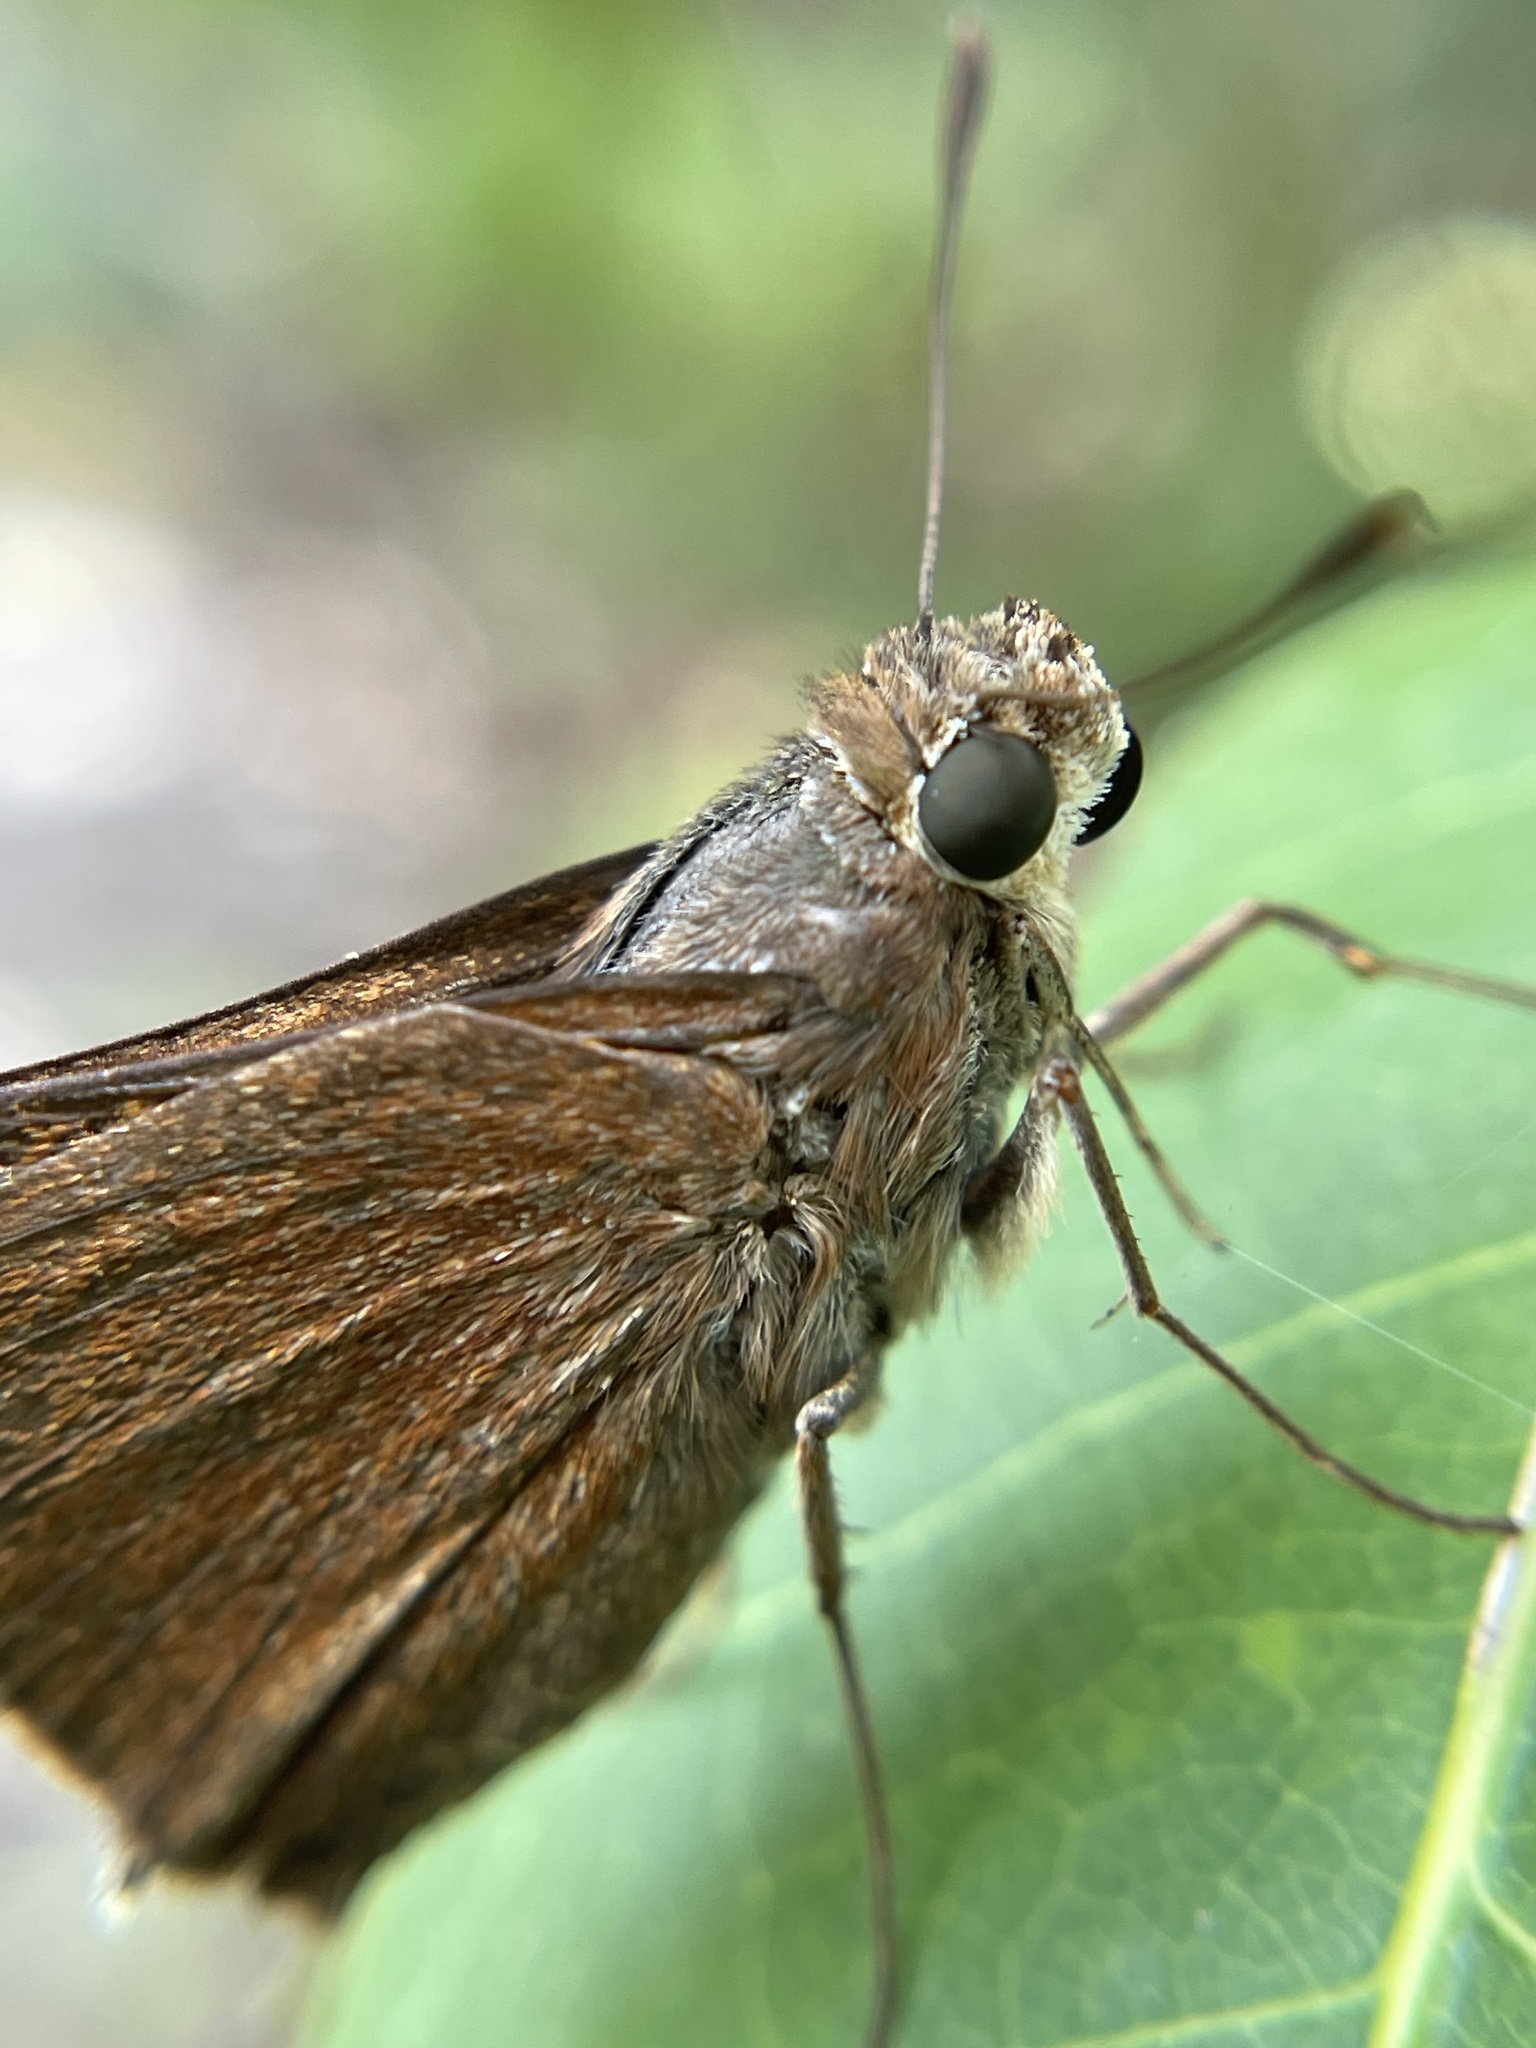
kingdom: Animalia
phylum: Arthropoda
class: Insecta
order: Lepidoptera
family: Hesperiidae
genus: Asbolis
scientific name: Asbolis capucinus
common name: Monk skipper
